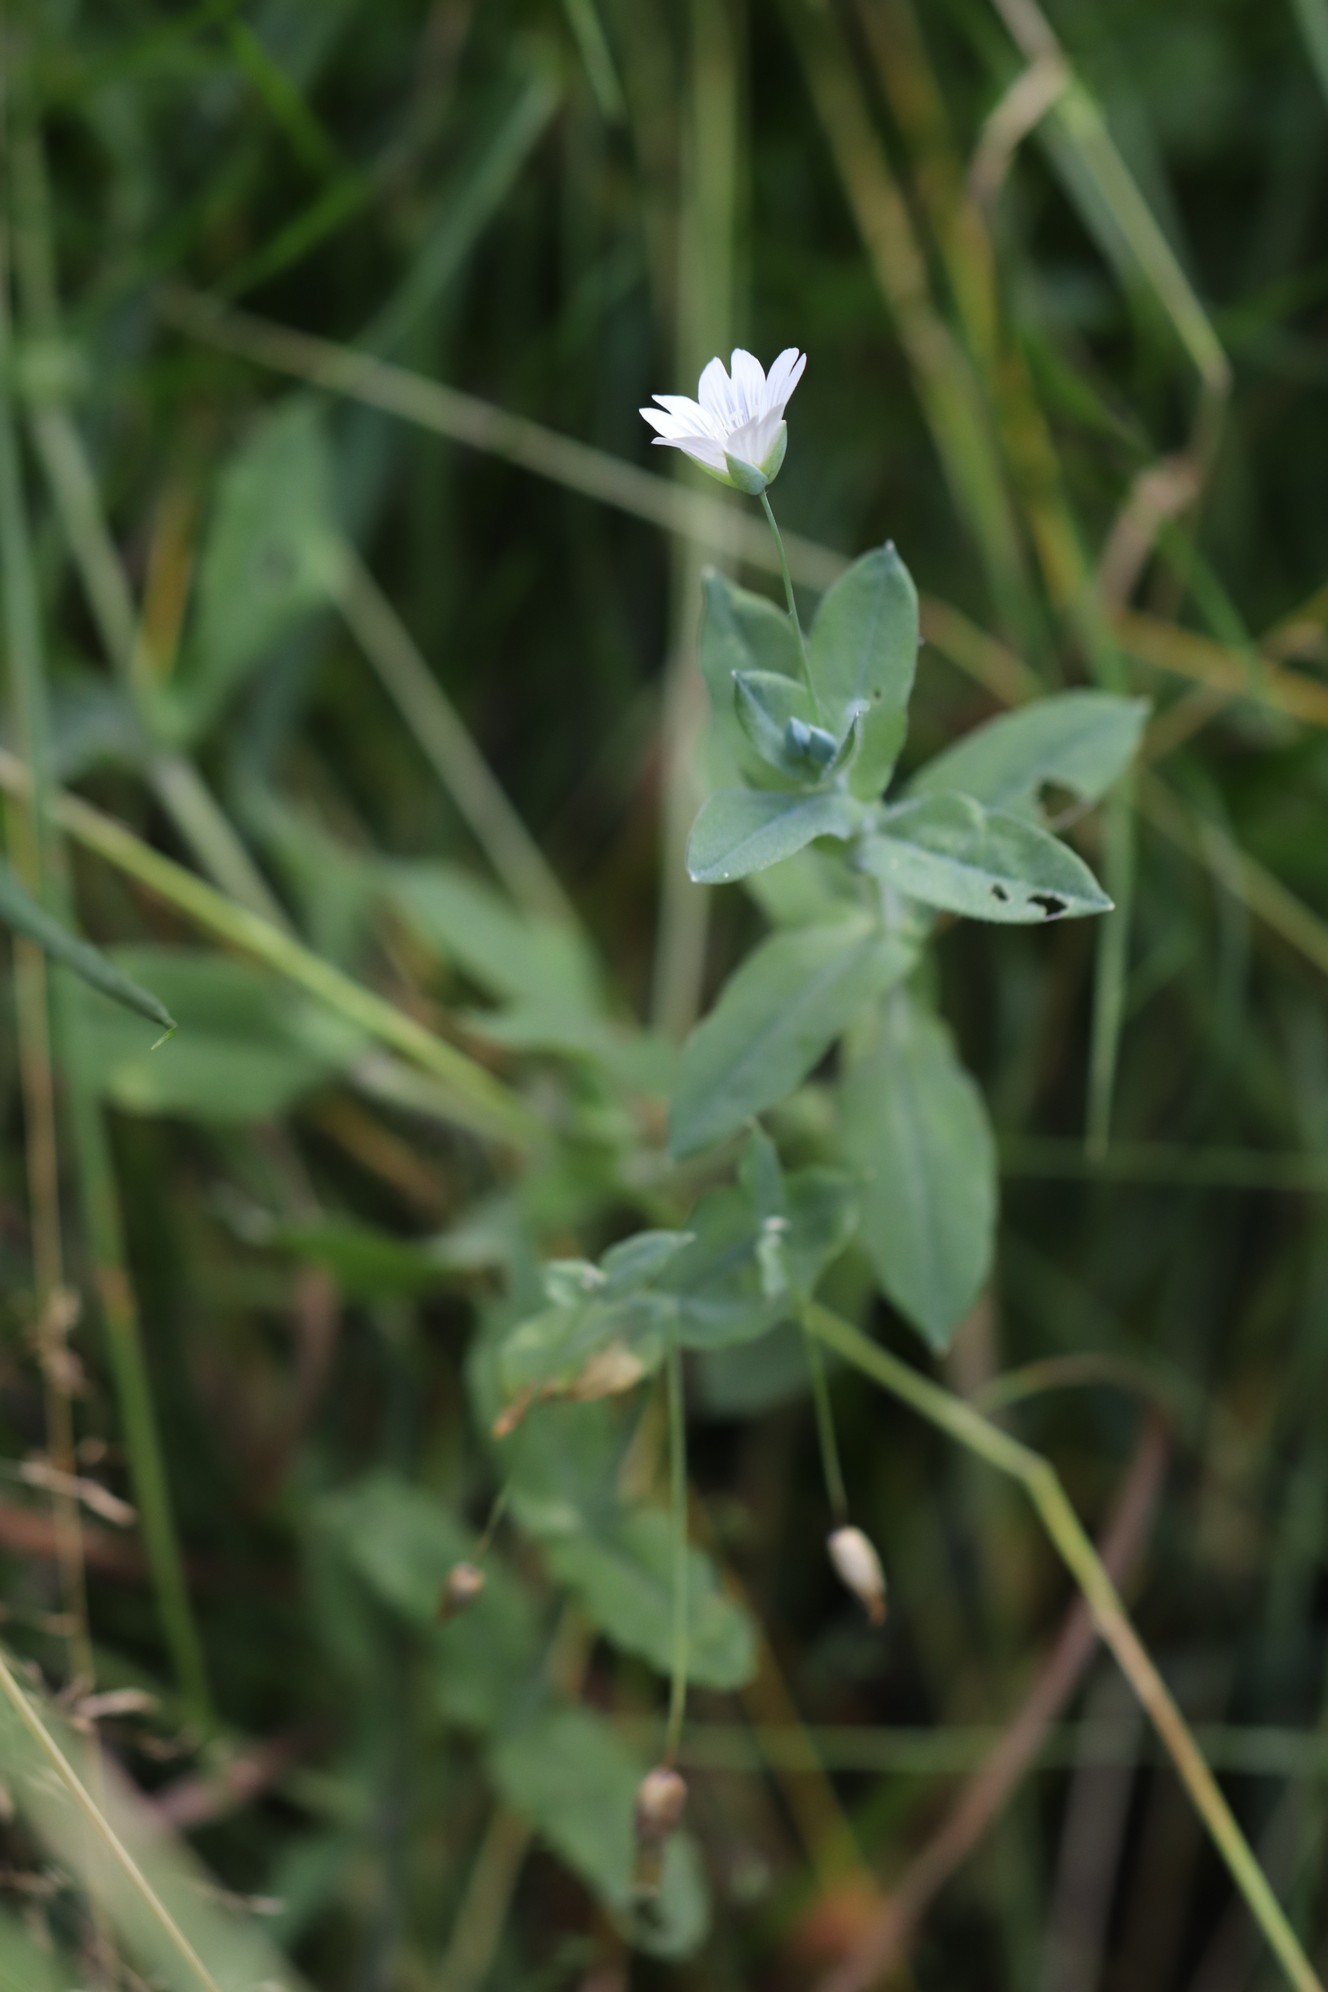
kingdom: Plantae
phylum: Tracheophyta
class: Magnoliopsida
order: Caryophyllales
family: Caryophyllaceae
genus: Cerastium
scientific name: Cerastium davuricum
